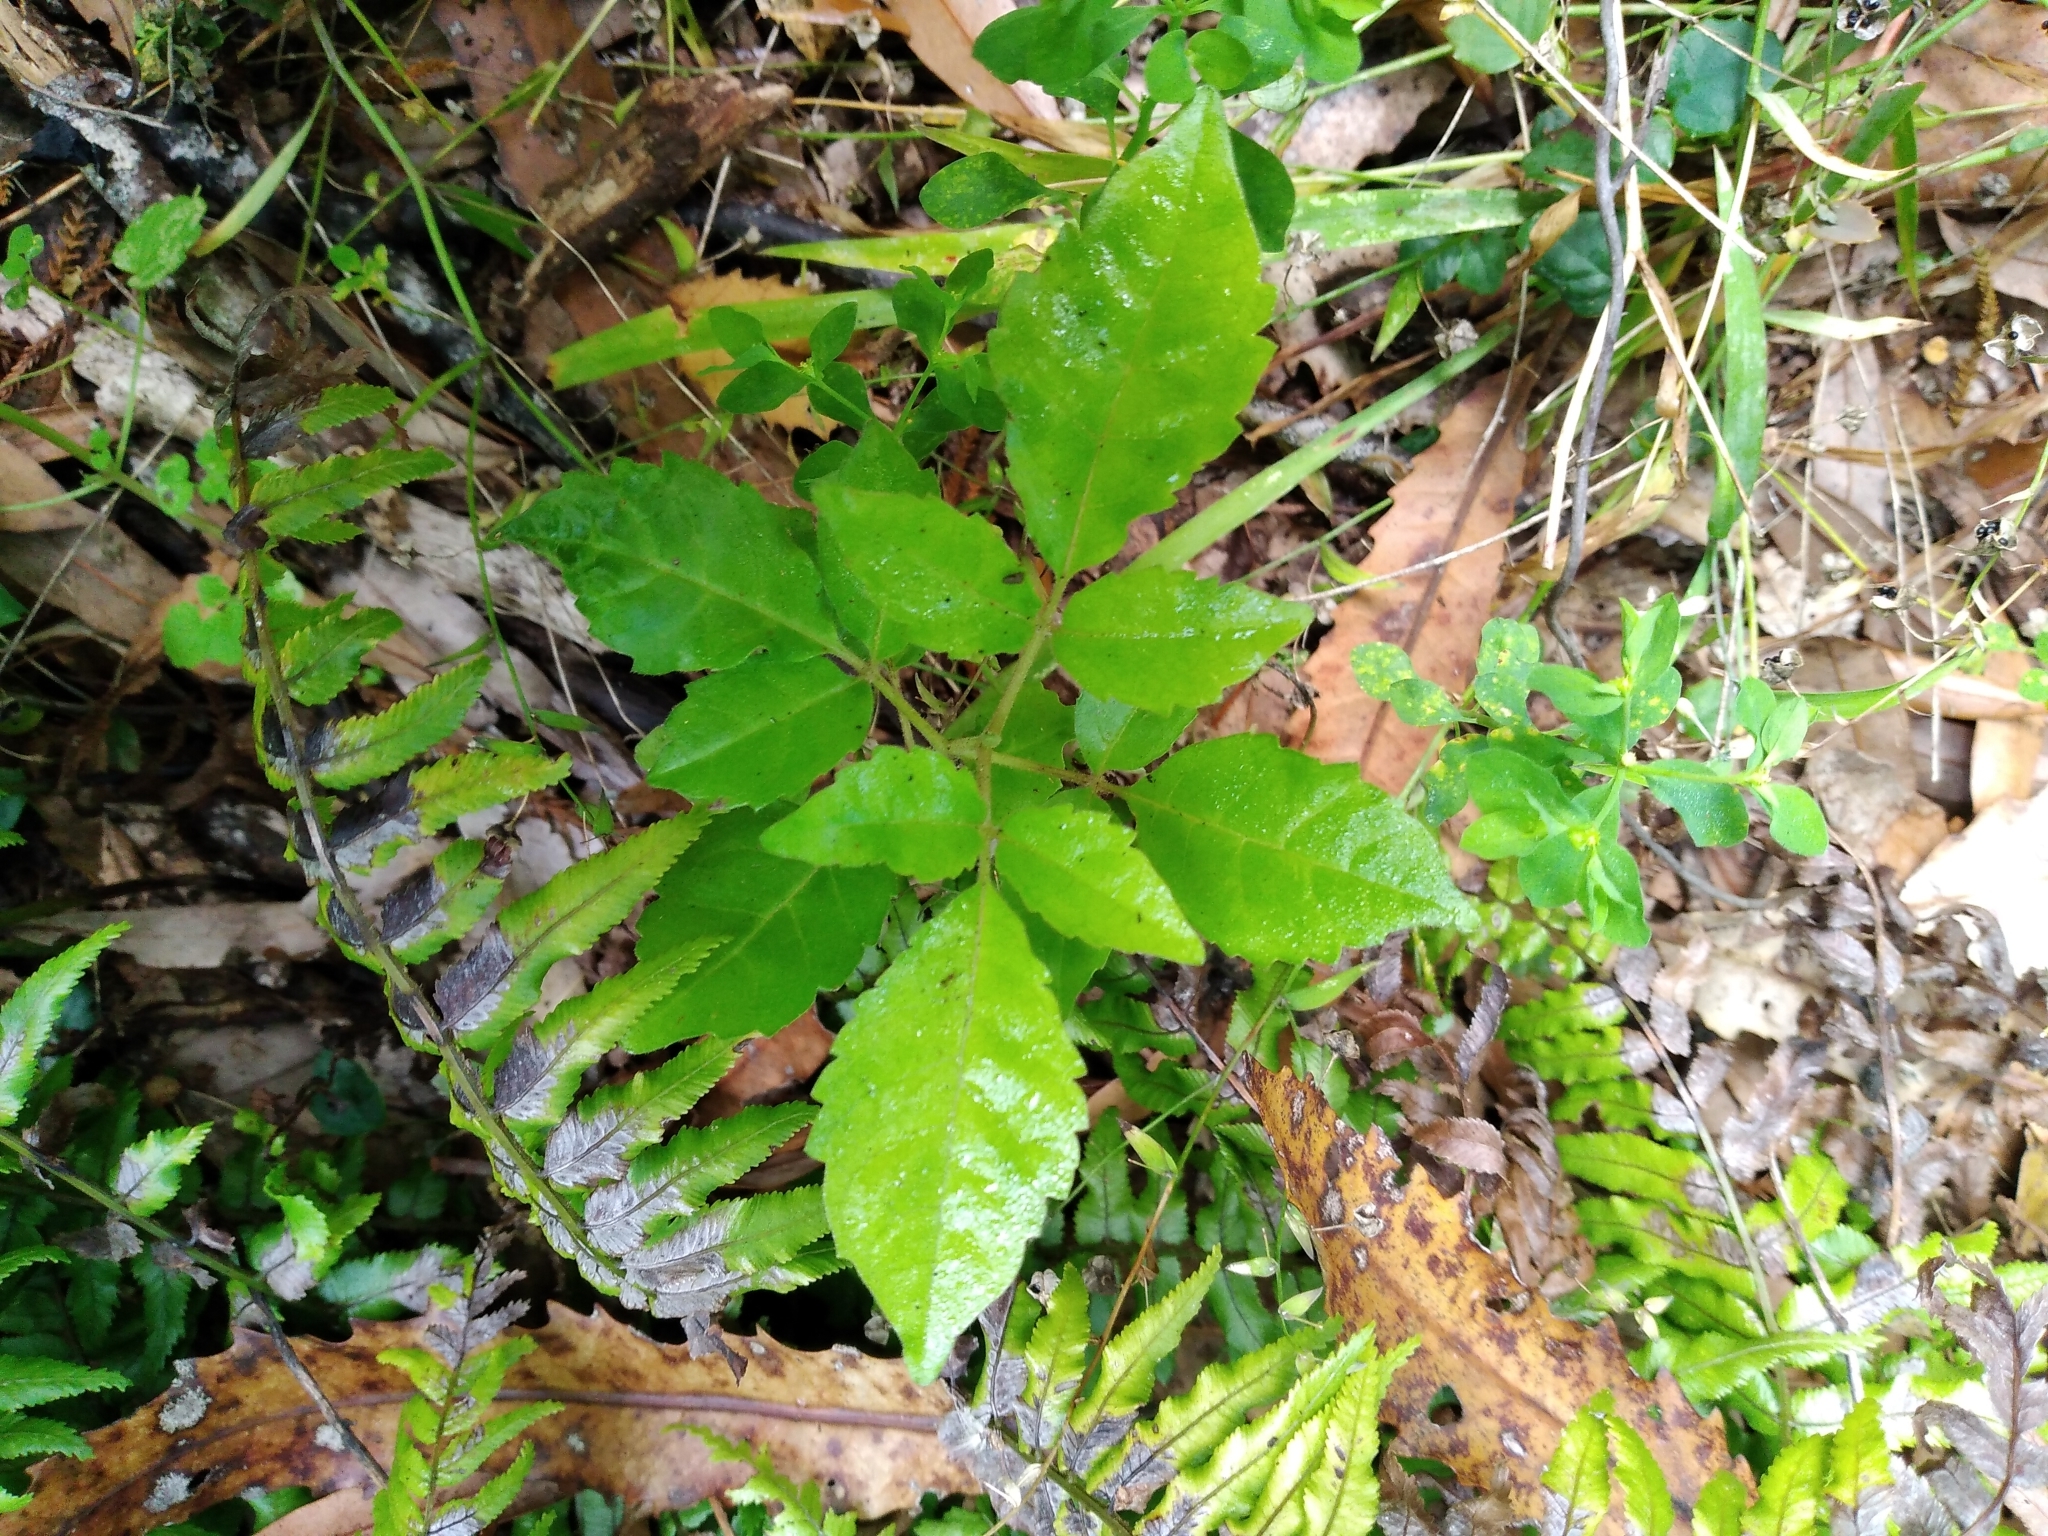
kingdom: Plantae
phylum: Tracheophyta
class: Magnoliopsida
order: Lamiales
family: Lamiaceae
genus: Vitex
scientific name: Vitex lucens
